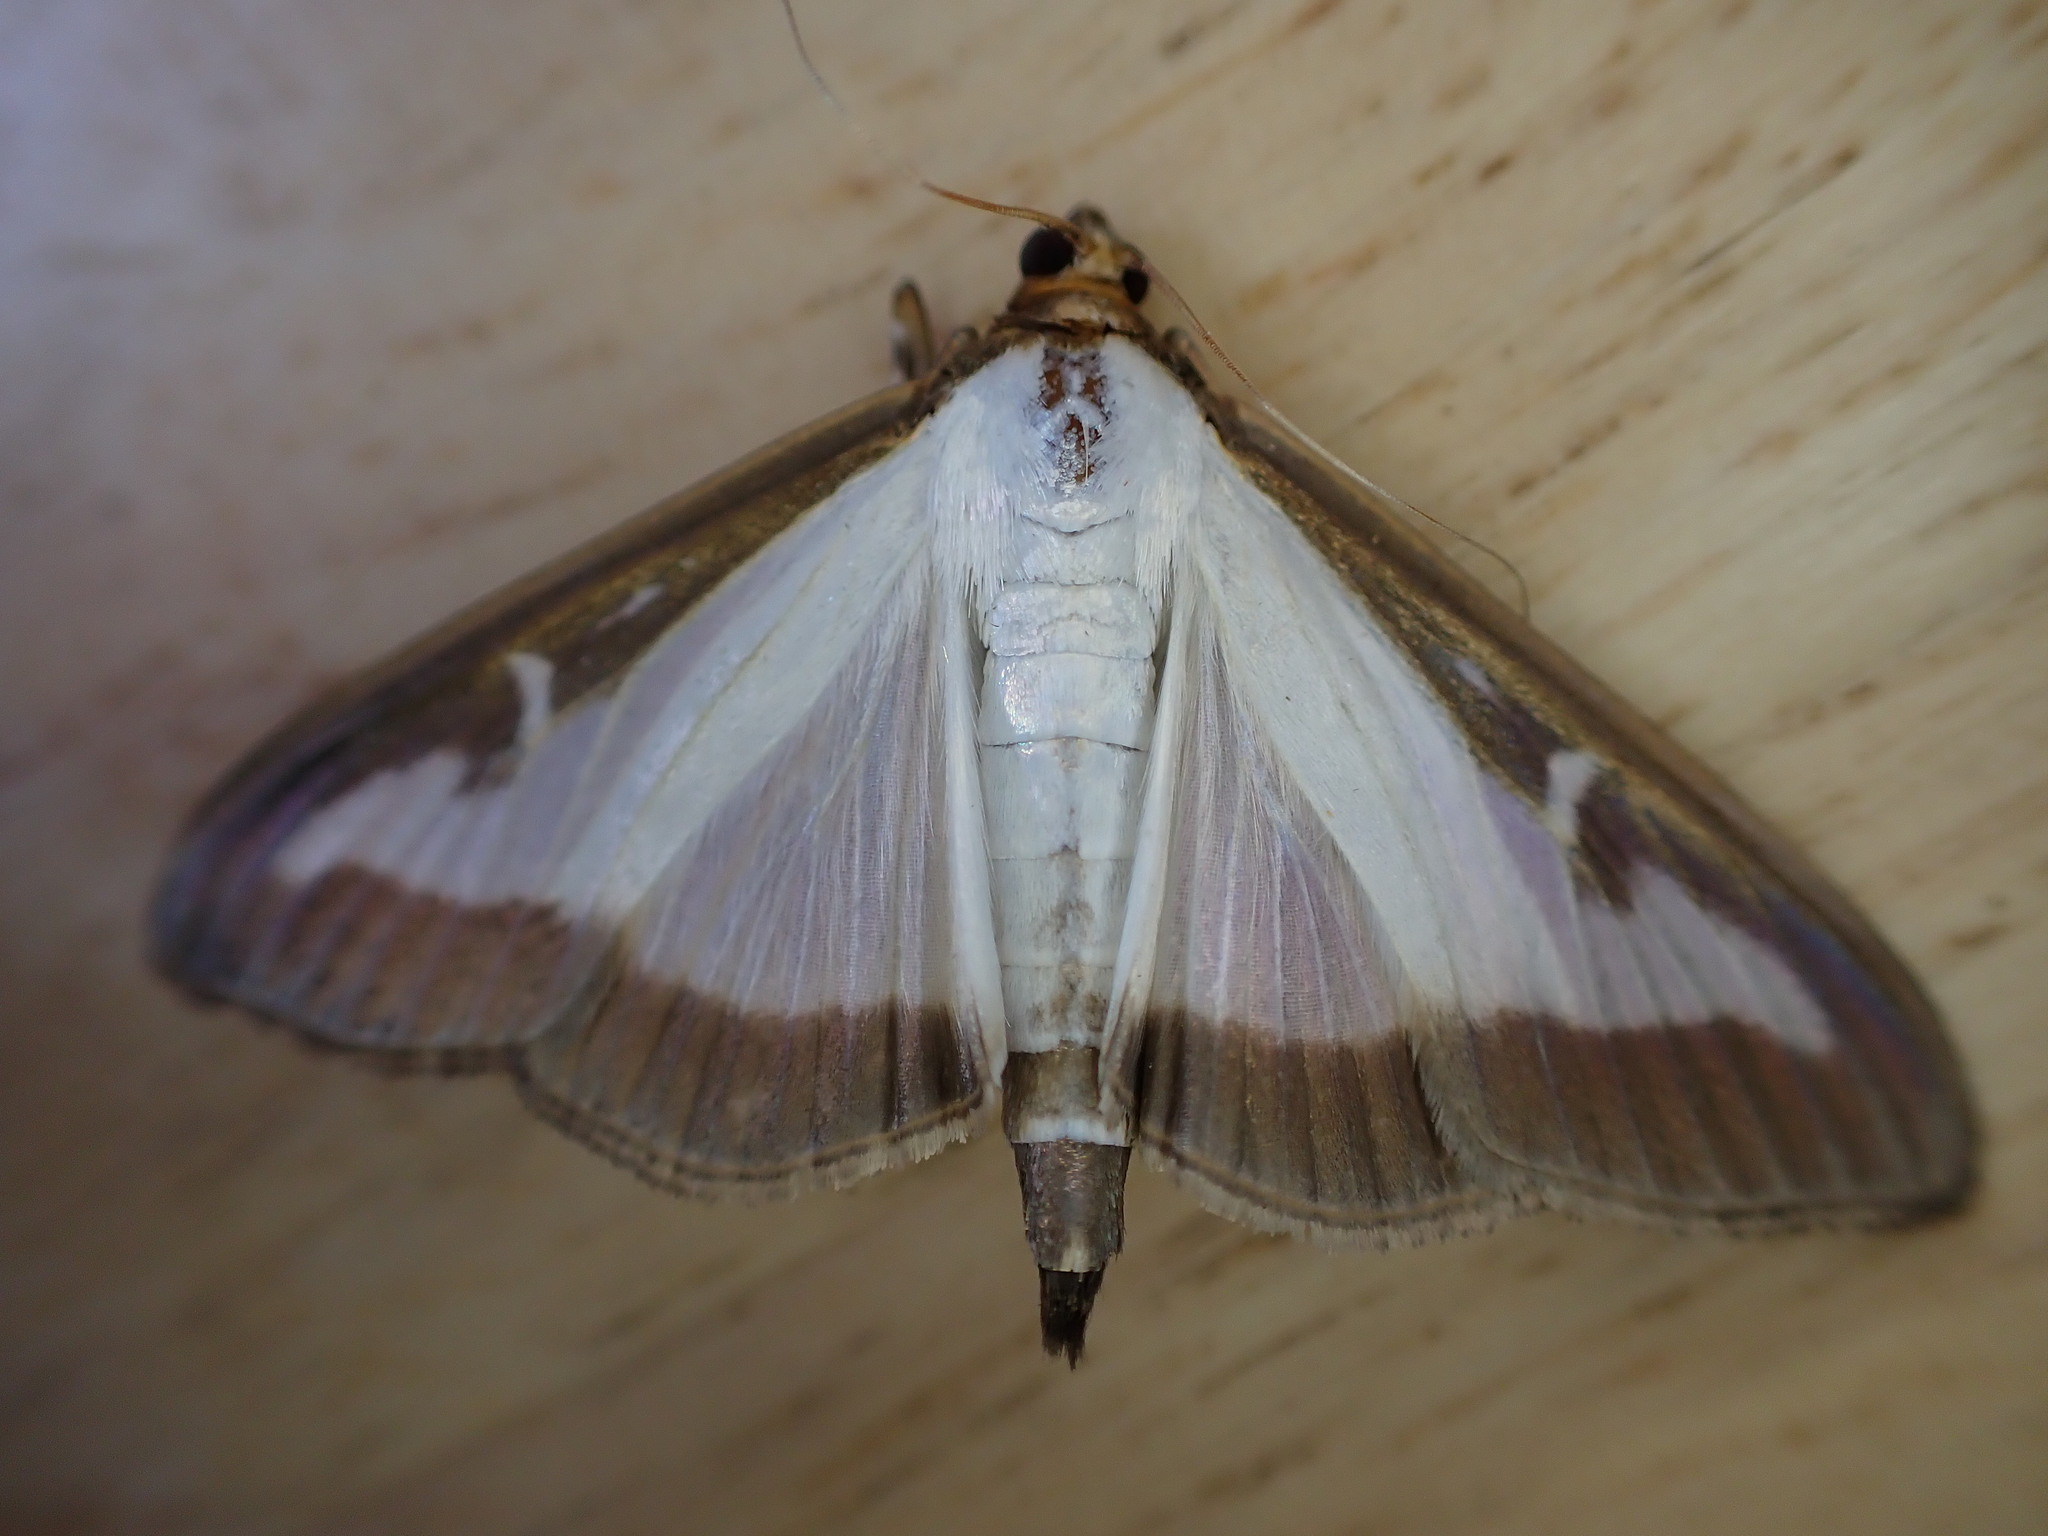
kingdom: Animalia
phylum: Arthropoda
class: Insecta
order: Lepidoptera
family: Crambidae
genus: Cydalima
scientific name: Cydalima perspectalis
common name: Box tree moth
